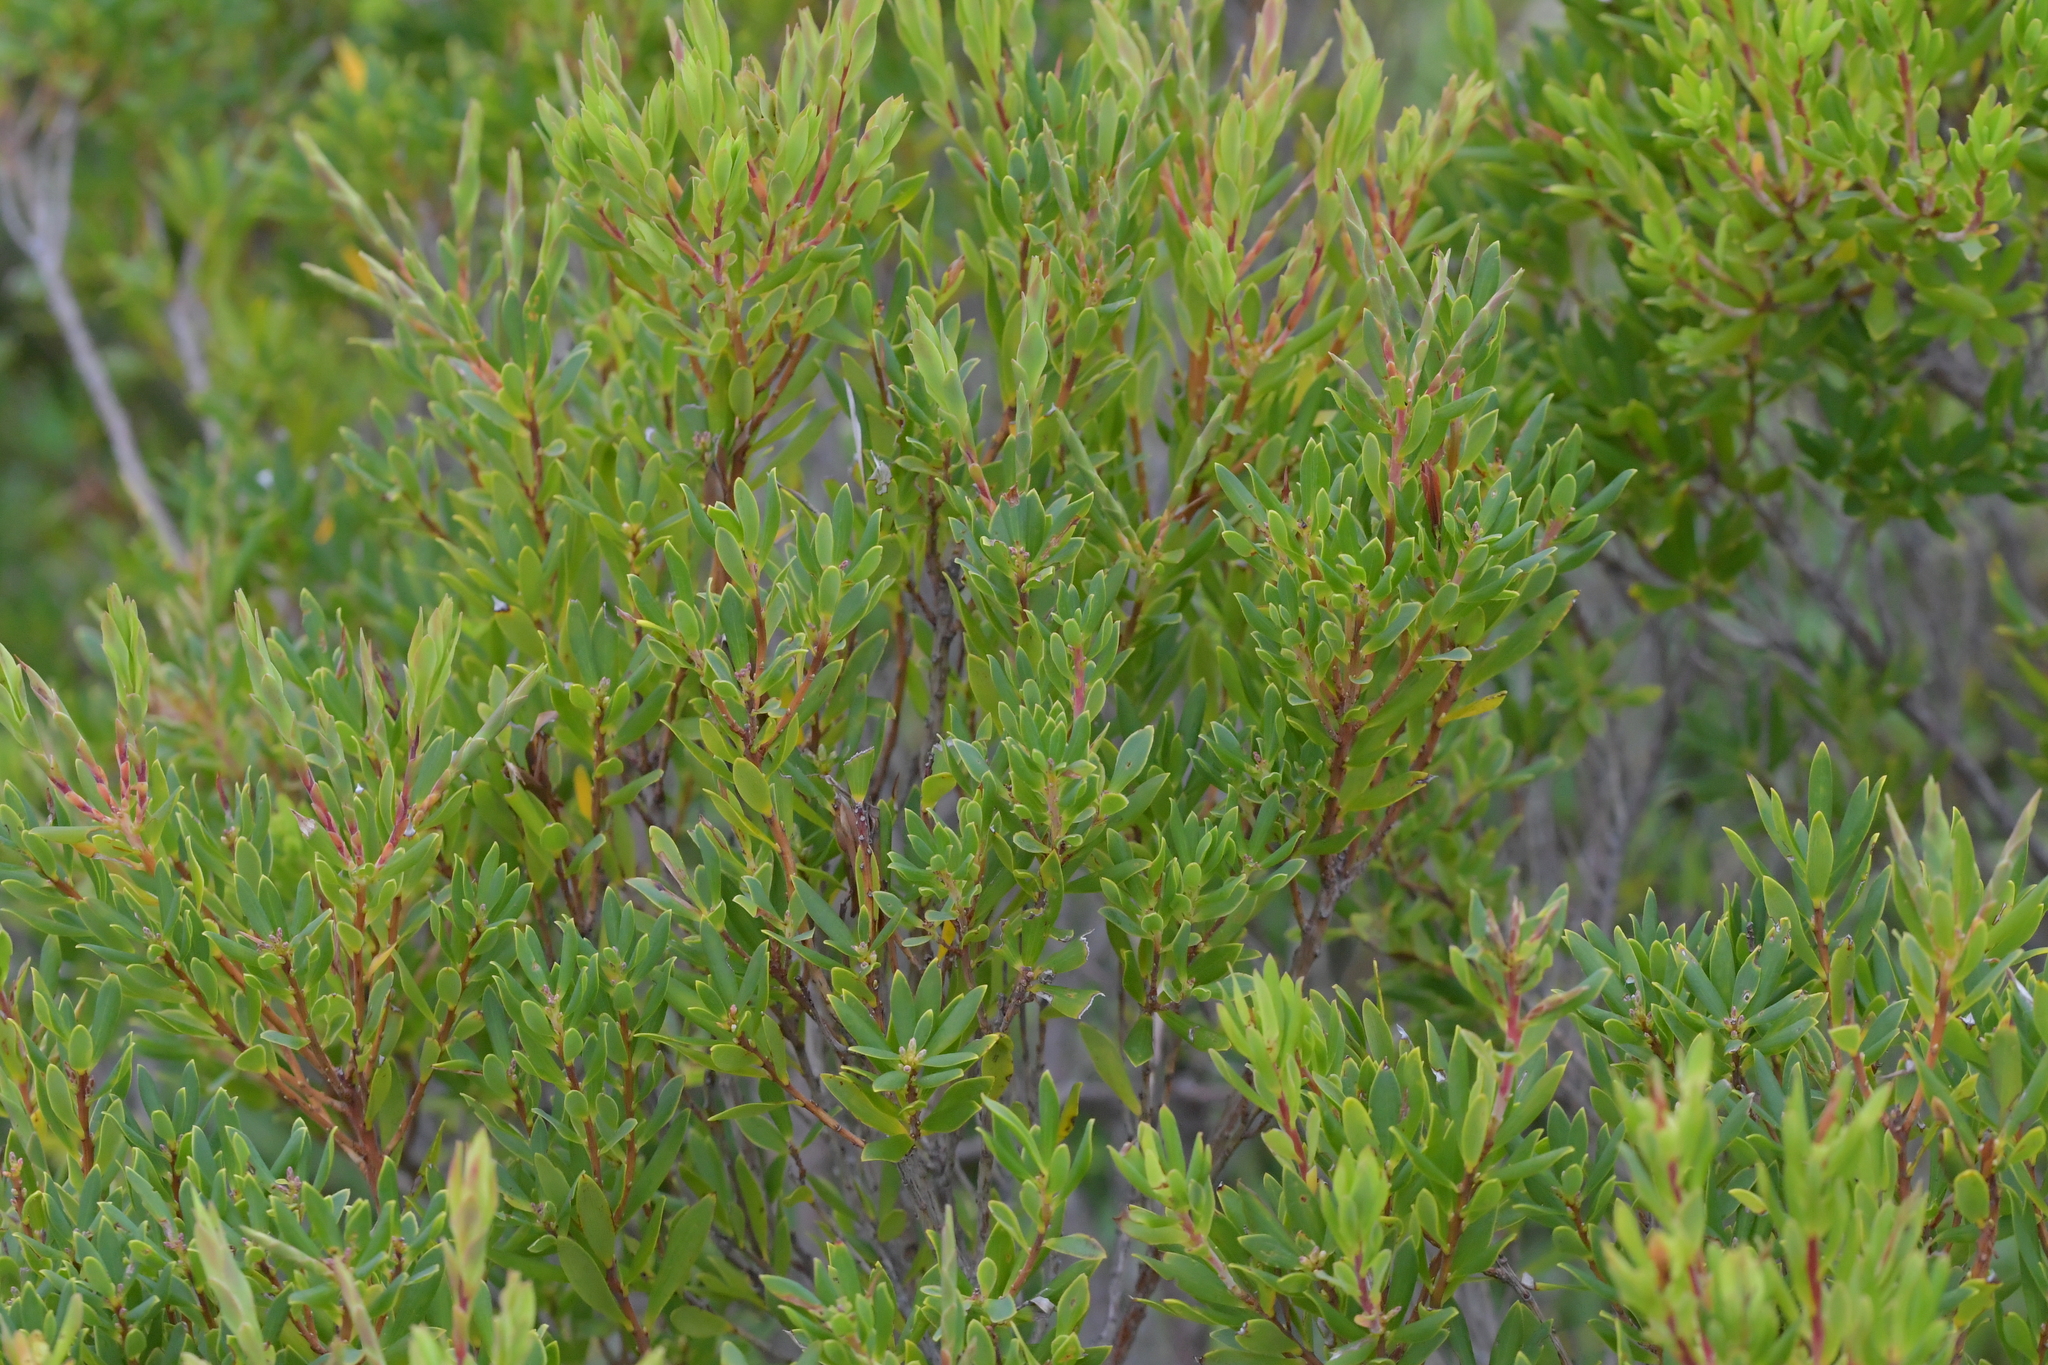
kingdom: Plantae
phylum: Tracheophyta
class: Magnoliopsida
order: Ericales
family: Ericaceae
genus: Leptecophylla
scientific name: Leptecophylla parvifolia
